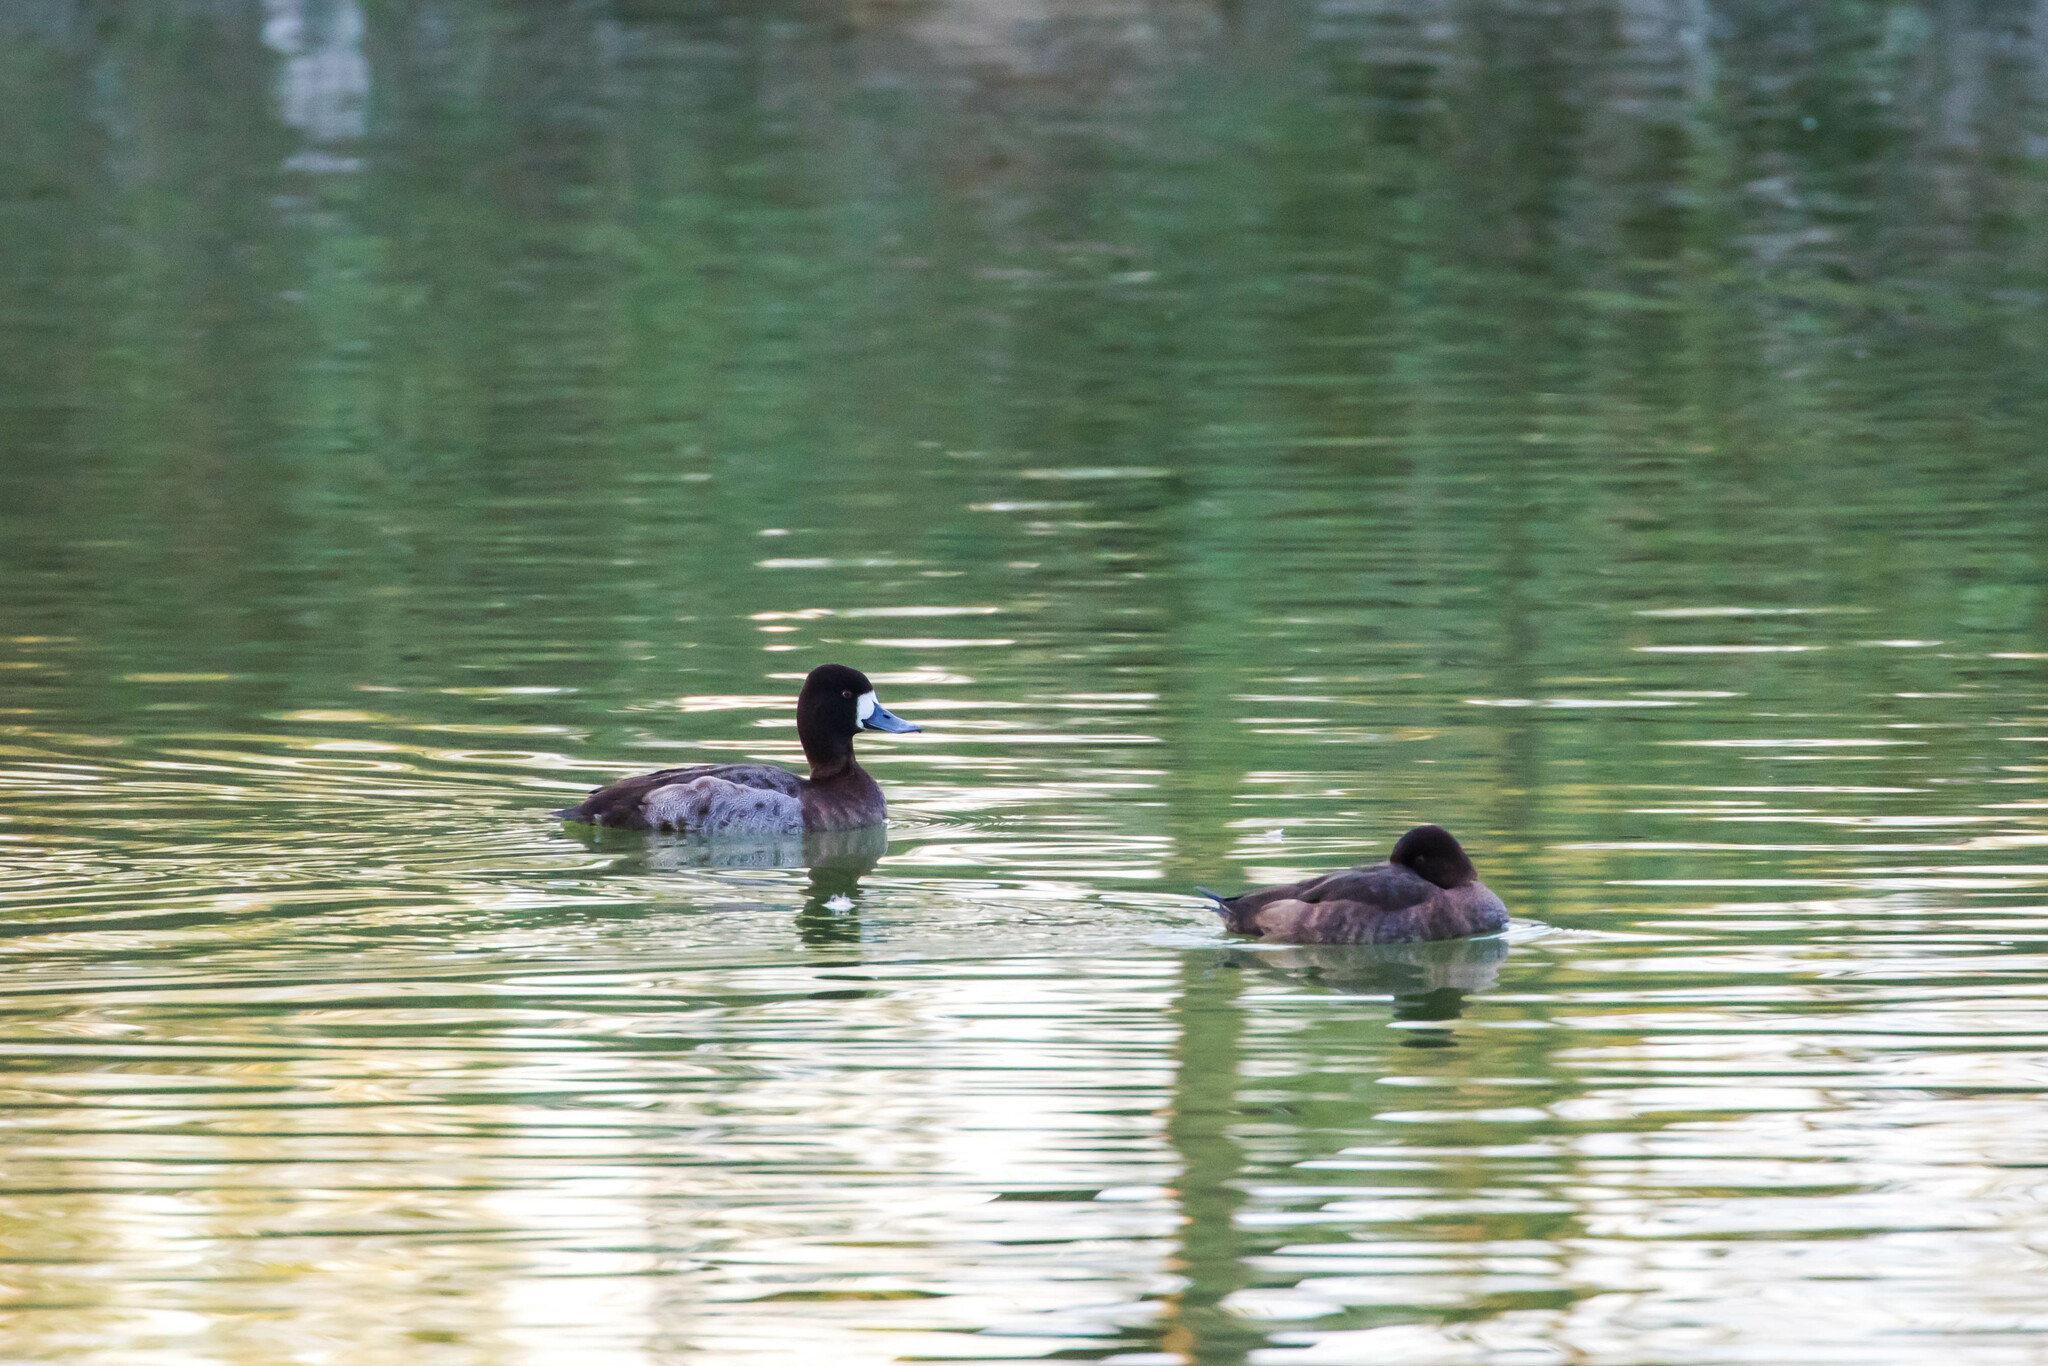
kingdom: Animalia
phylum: Chordata
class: Aves
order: Anseriformes
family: Anatidae
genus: Aythya
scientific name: Aythya affinis
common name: Lesser scaup
